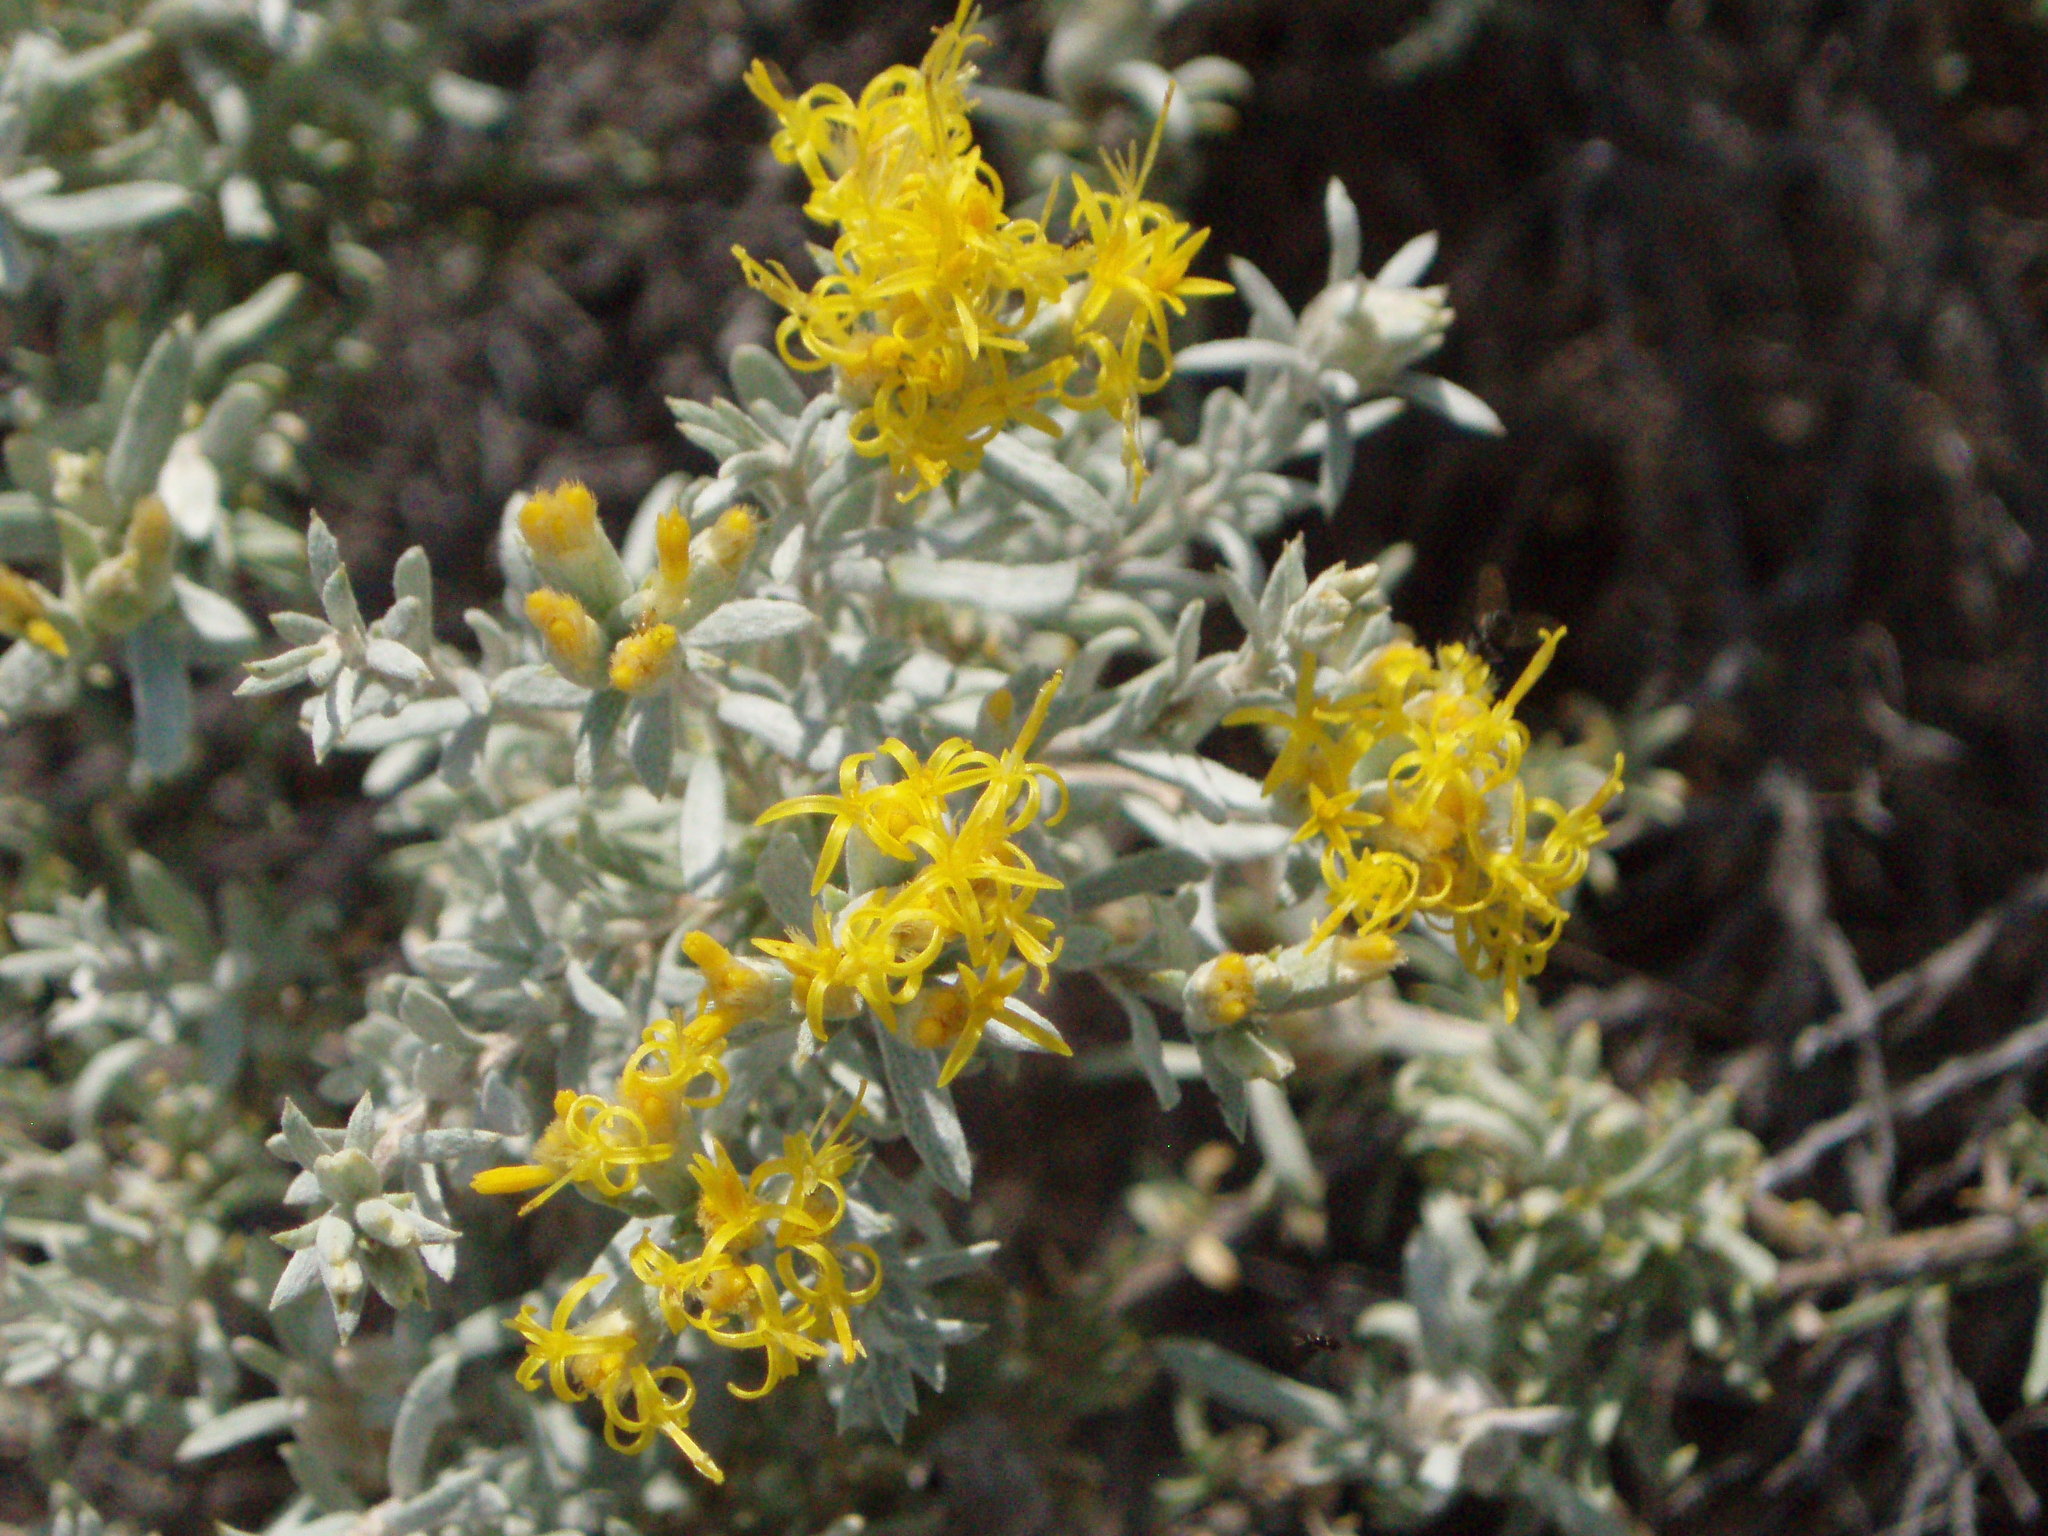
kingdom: Plantae
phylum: Tracheophyta
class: Magnoliopsida
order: Asterales
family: Asteraceae
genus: Tetradymia
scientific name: Tetradymia canescens
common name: Spineless horsebrush
